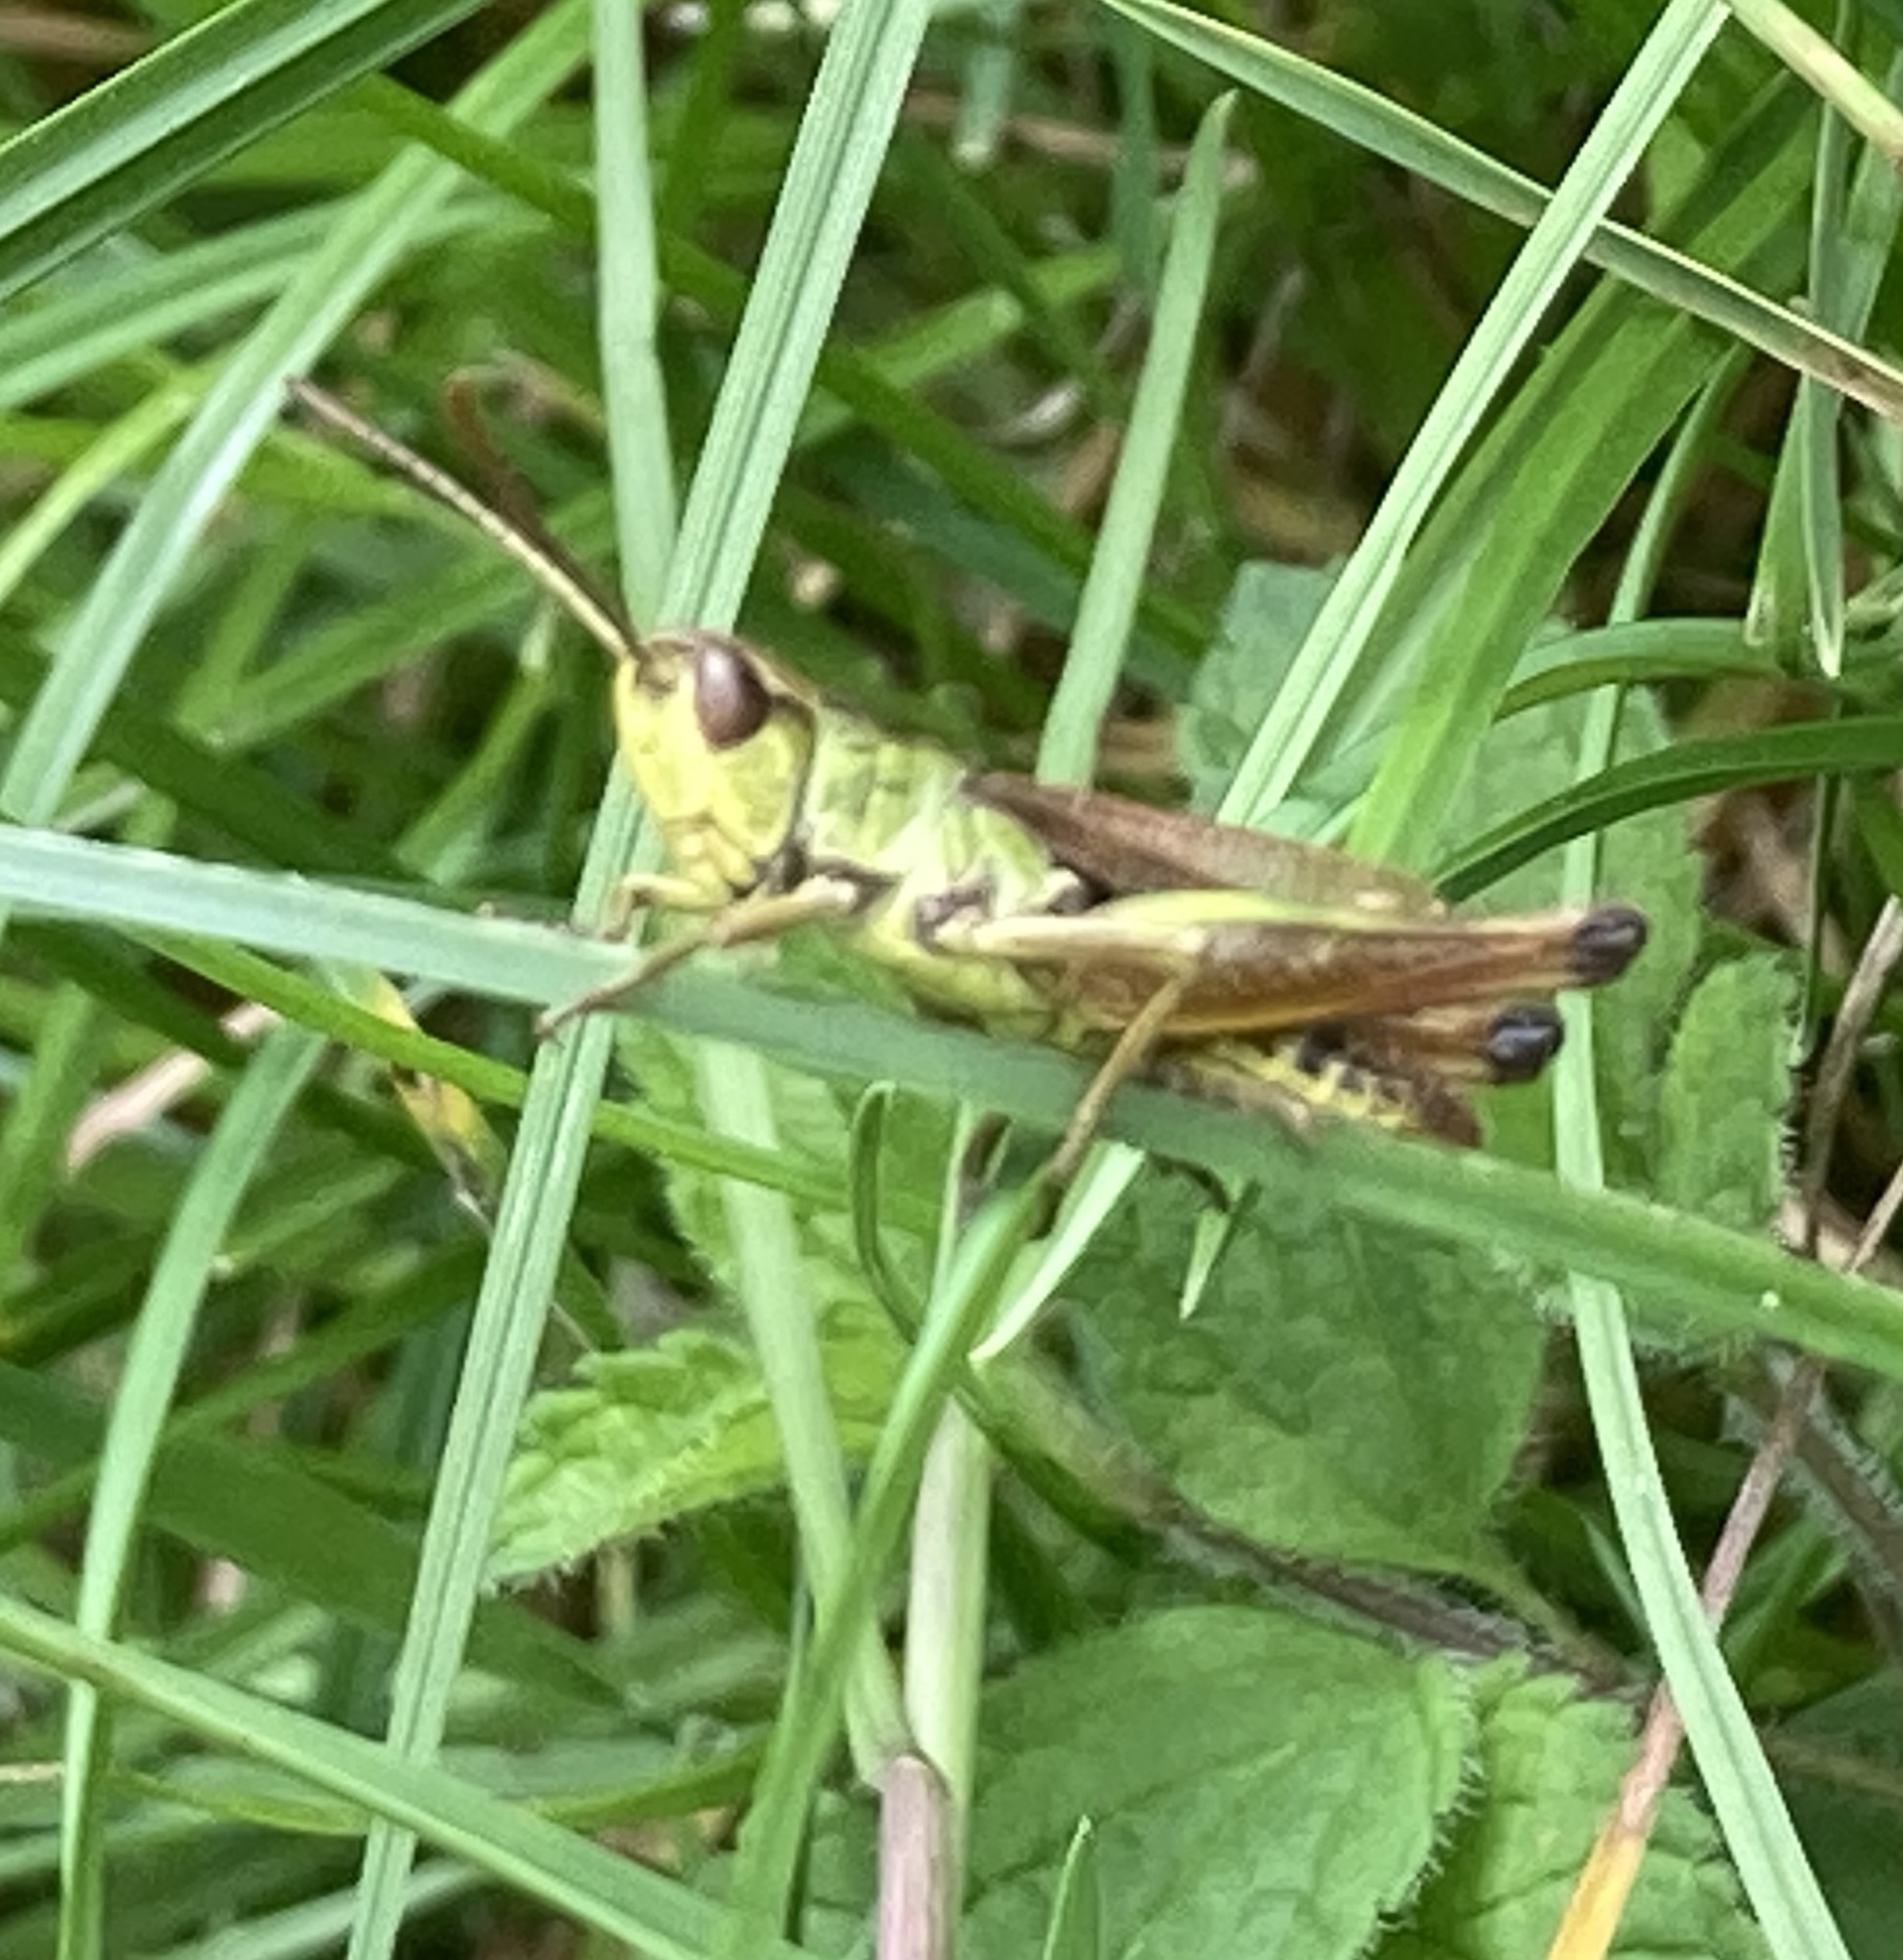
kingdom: Animalia
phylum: Arthropoda
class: Insecta
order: Orthoptera
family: Acrididae
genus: Pseudochorthippus
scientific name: Pseudochorthippus parallelus
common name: Meadow grasshopper
